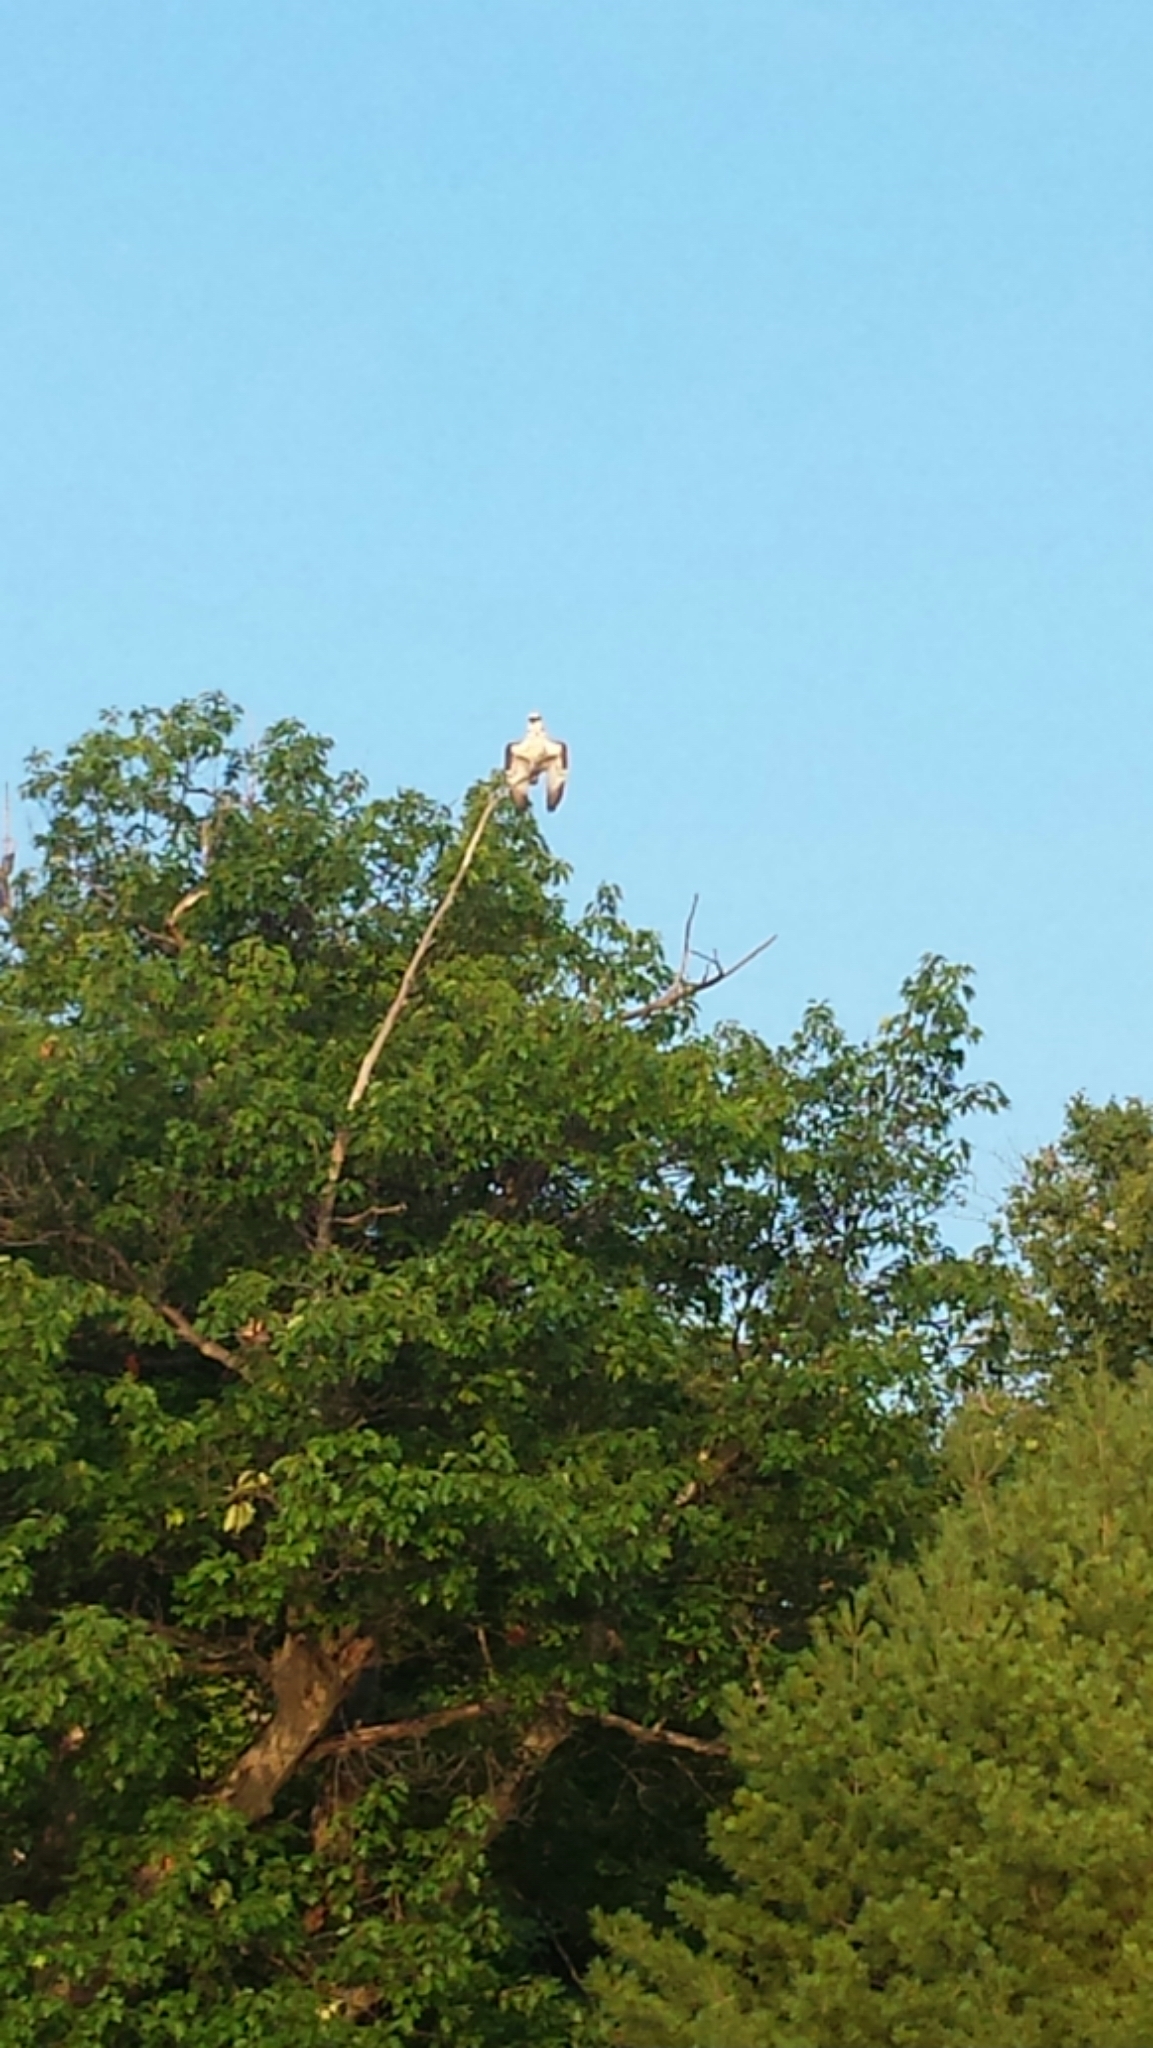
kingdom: Animalia
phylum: Chordata
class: Aves
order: Accipitriformes
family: Pandionidae
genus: Pandion
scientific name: Pandion haliaetus
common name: Osprey
